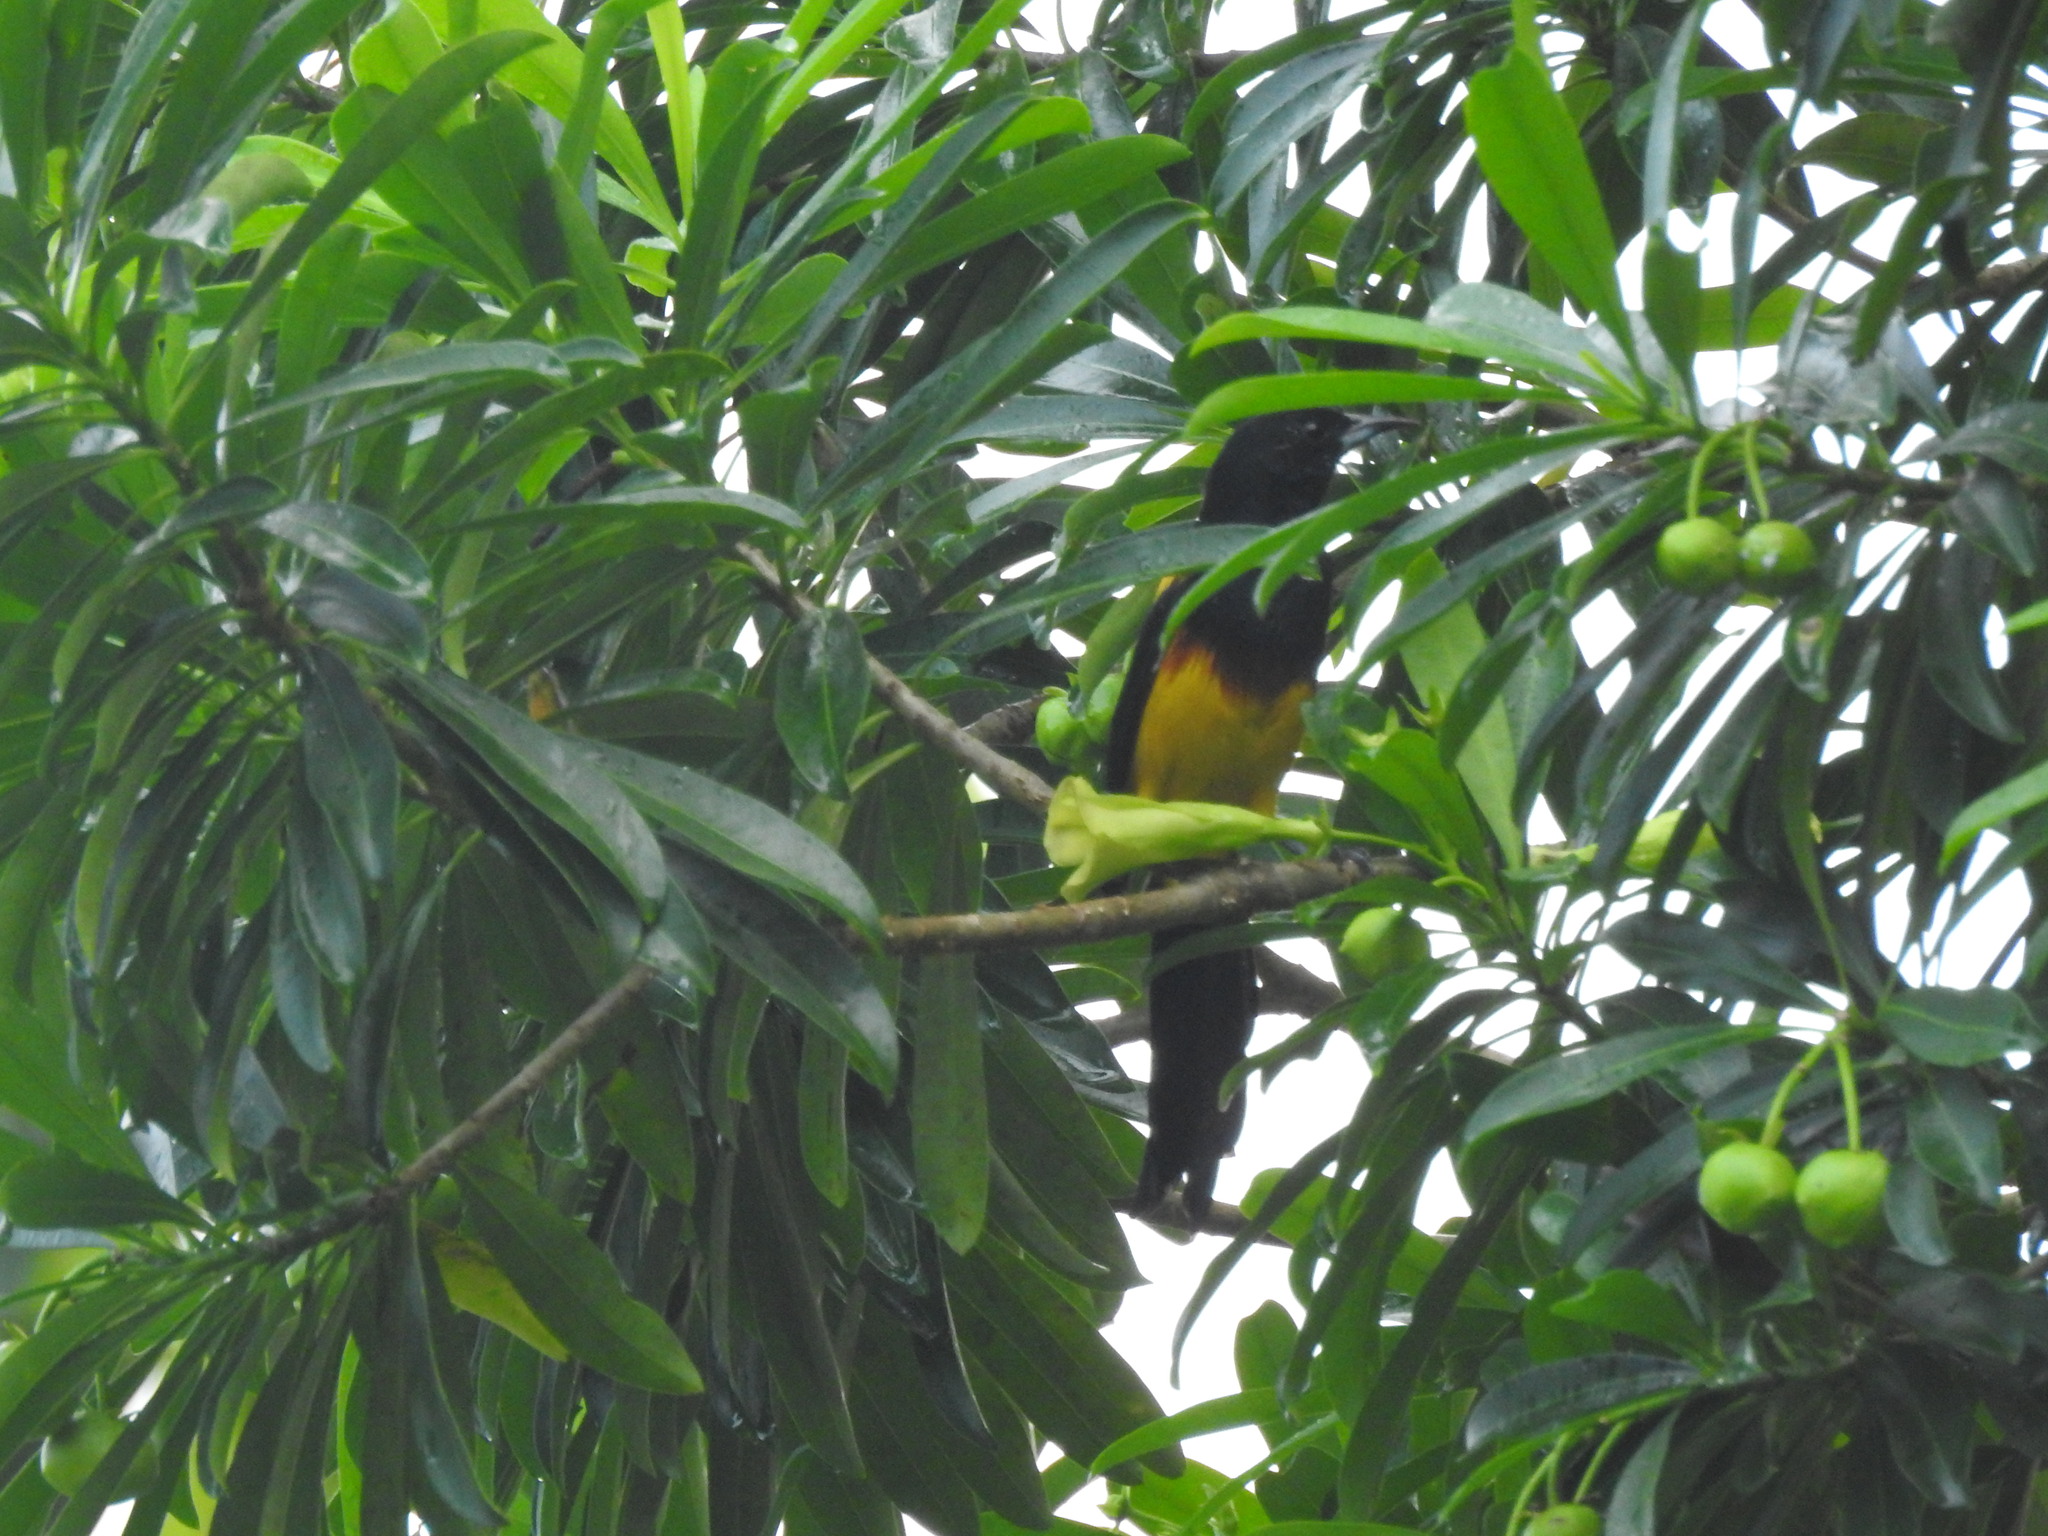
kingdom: Animalia
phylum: Chordata
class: Aves
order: Passeriformes
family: Icteridae
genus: Icterus
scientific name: Icterus prosthemelas
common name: Black-cowled oriole
